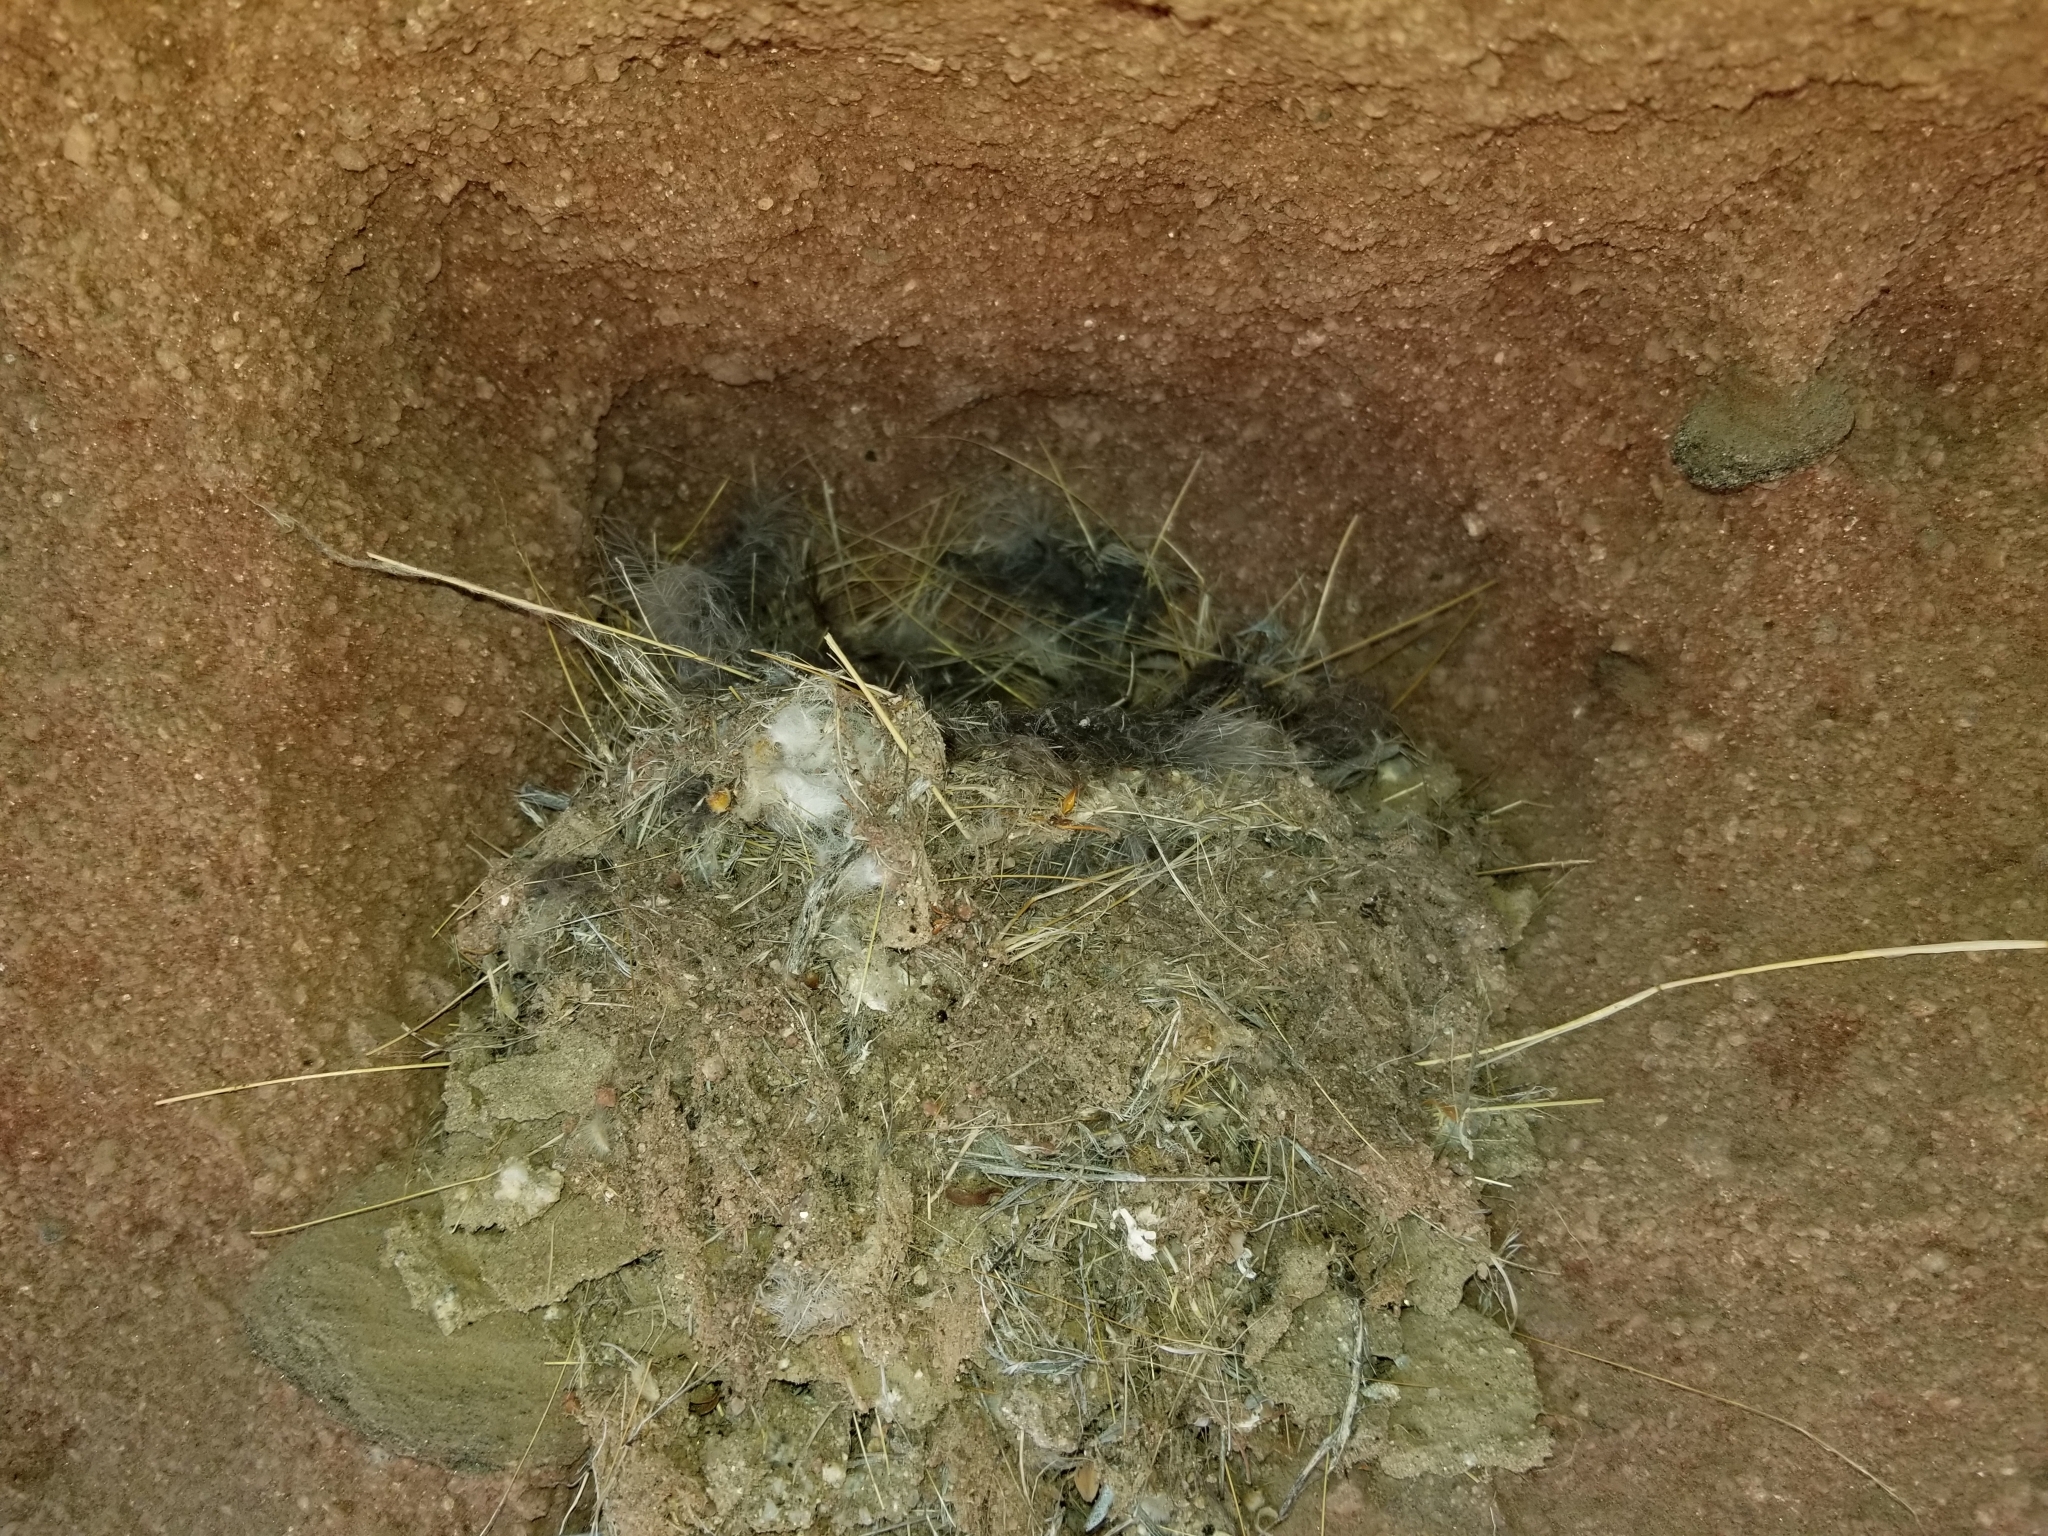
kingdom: Animalia
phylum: Chordata
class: Aves
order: Passeriformes
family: Tyrannidae
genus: Sayornis
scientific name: Sayornis saya
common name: Say's phoebe
